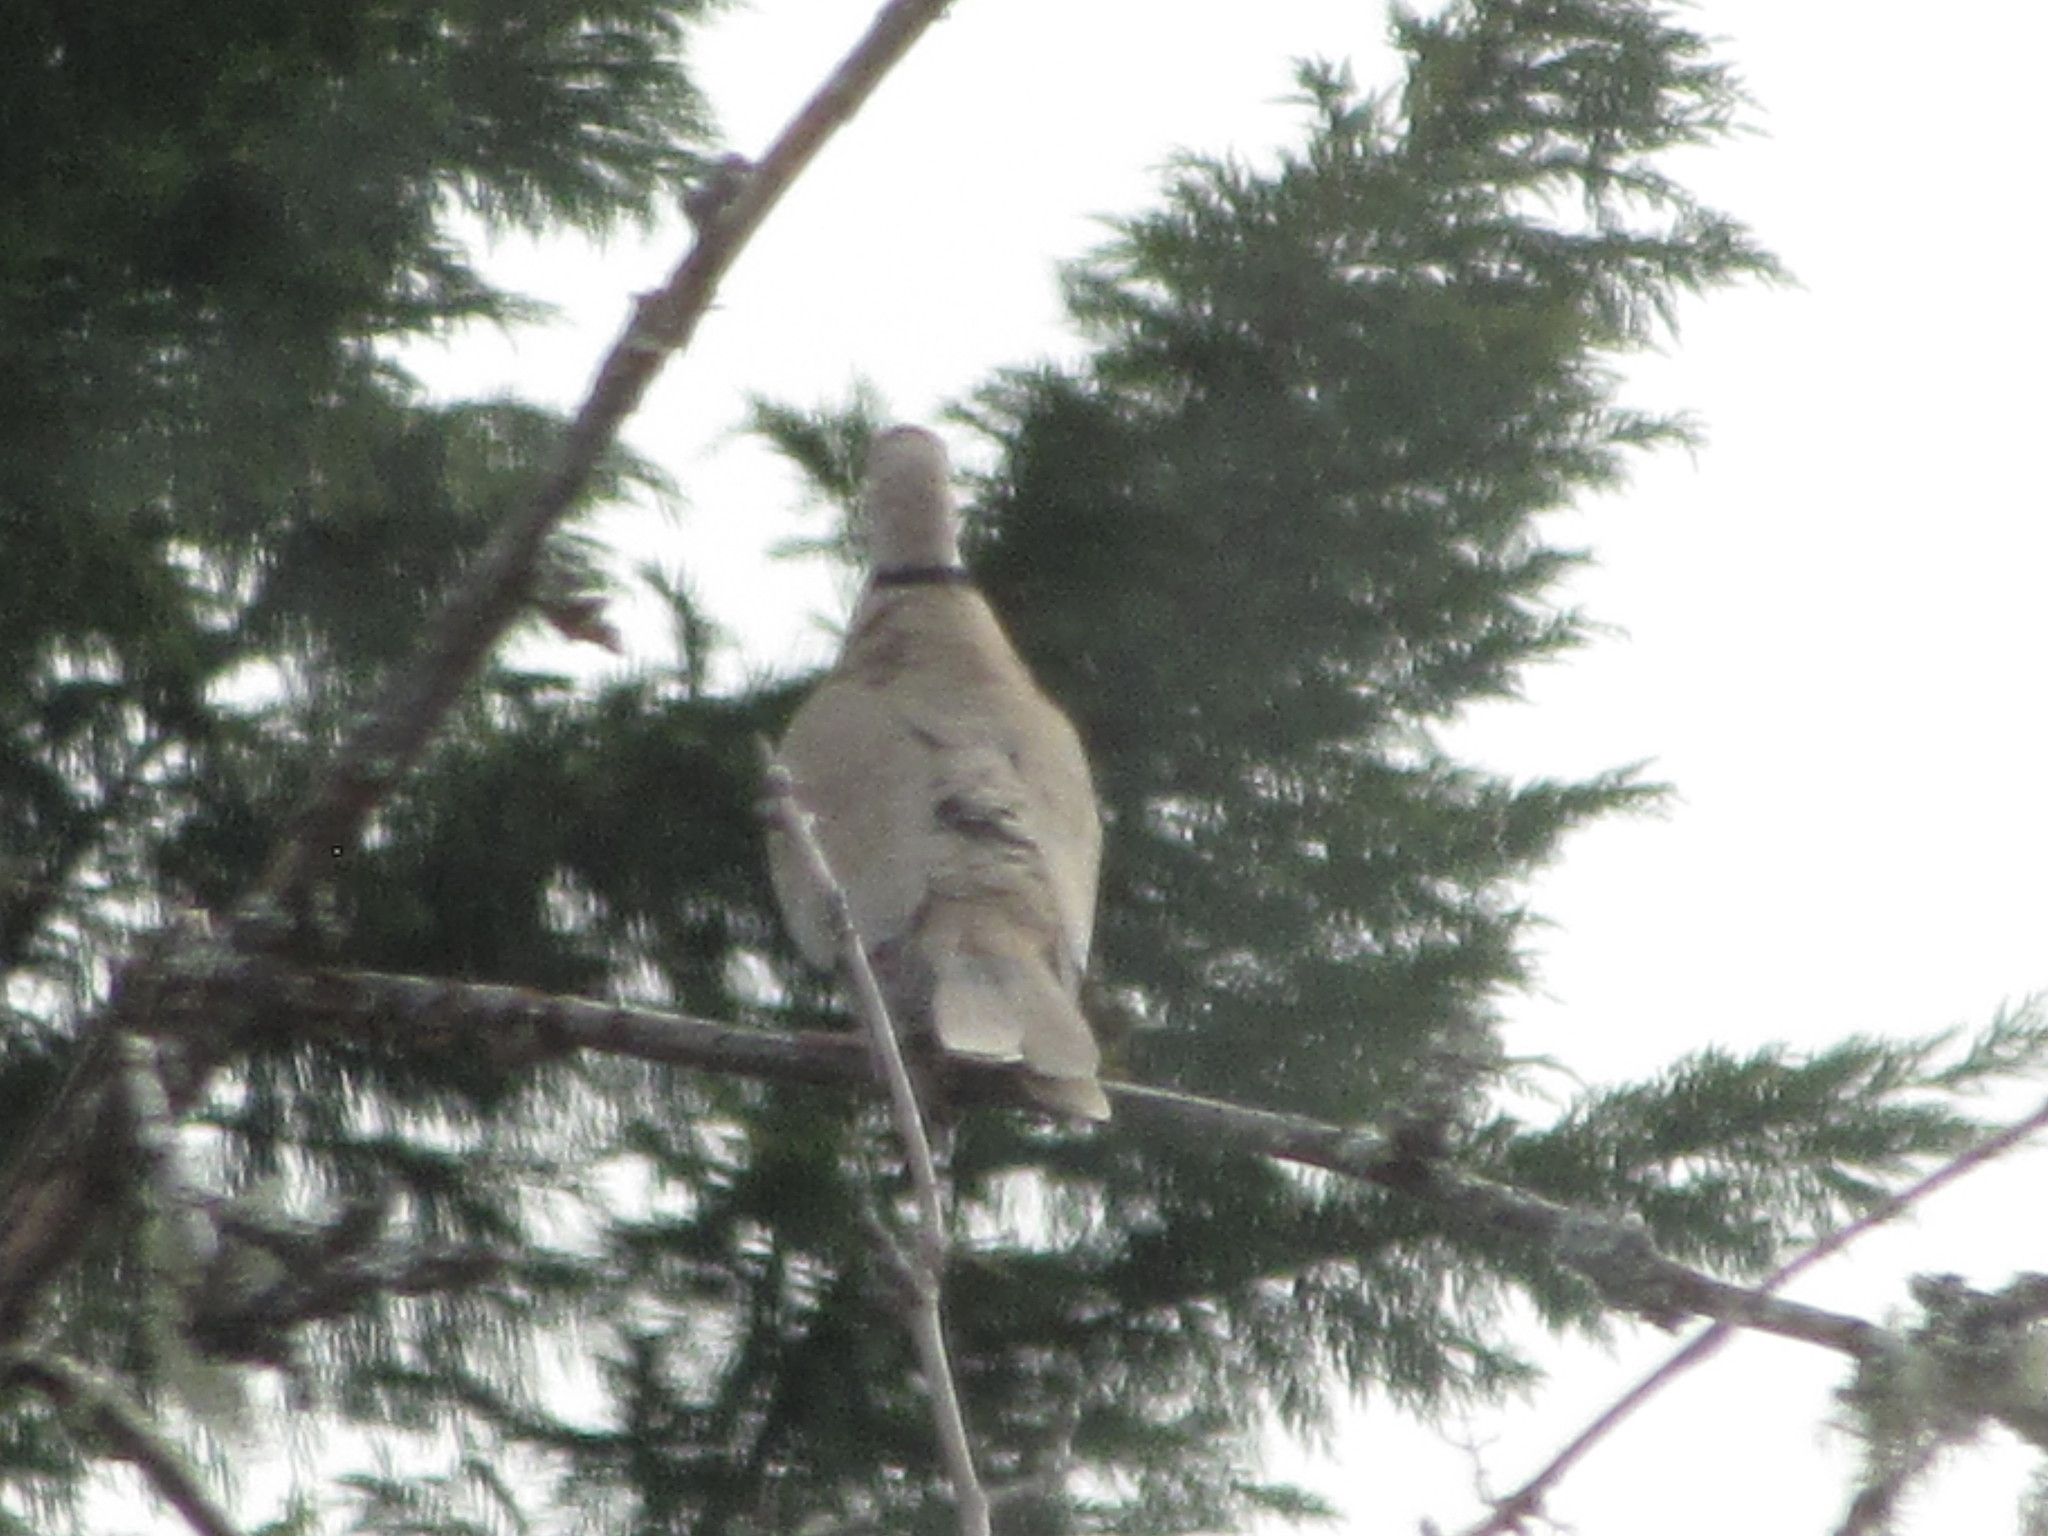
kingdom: Animalia
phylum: Chordata
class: Aves
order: Columbiformes
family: Columbidae
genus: Streptopelia
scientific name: Streptopelia decaocto
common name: Eurasian collared dove
